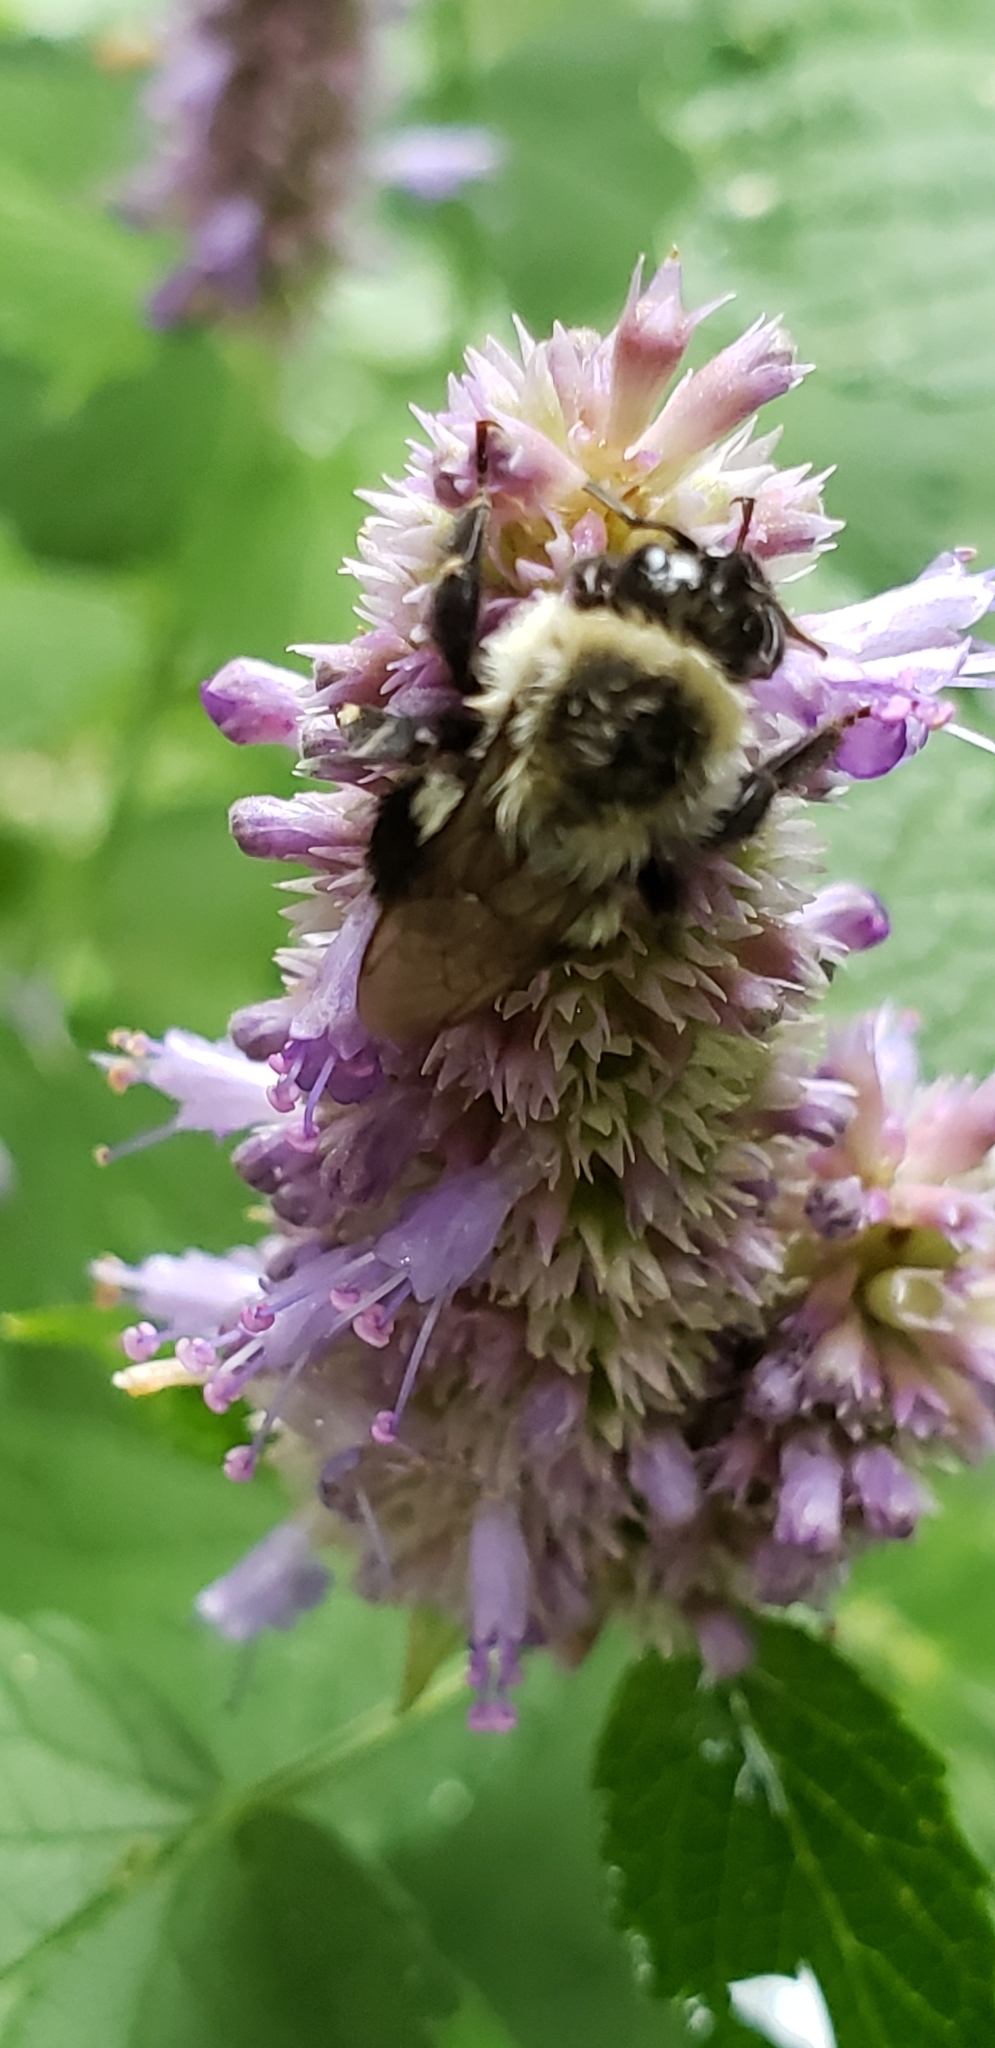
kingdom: Animalia
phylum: Arthropoda
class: Insecta
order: Hymenoptera
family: Apidae
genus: Bombus
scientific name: Bombus impatiens
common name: Common eastern bumble bee
